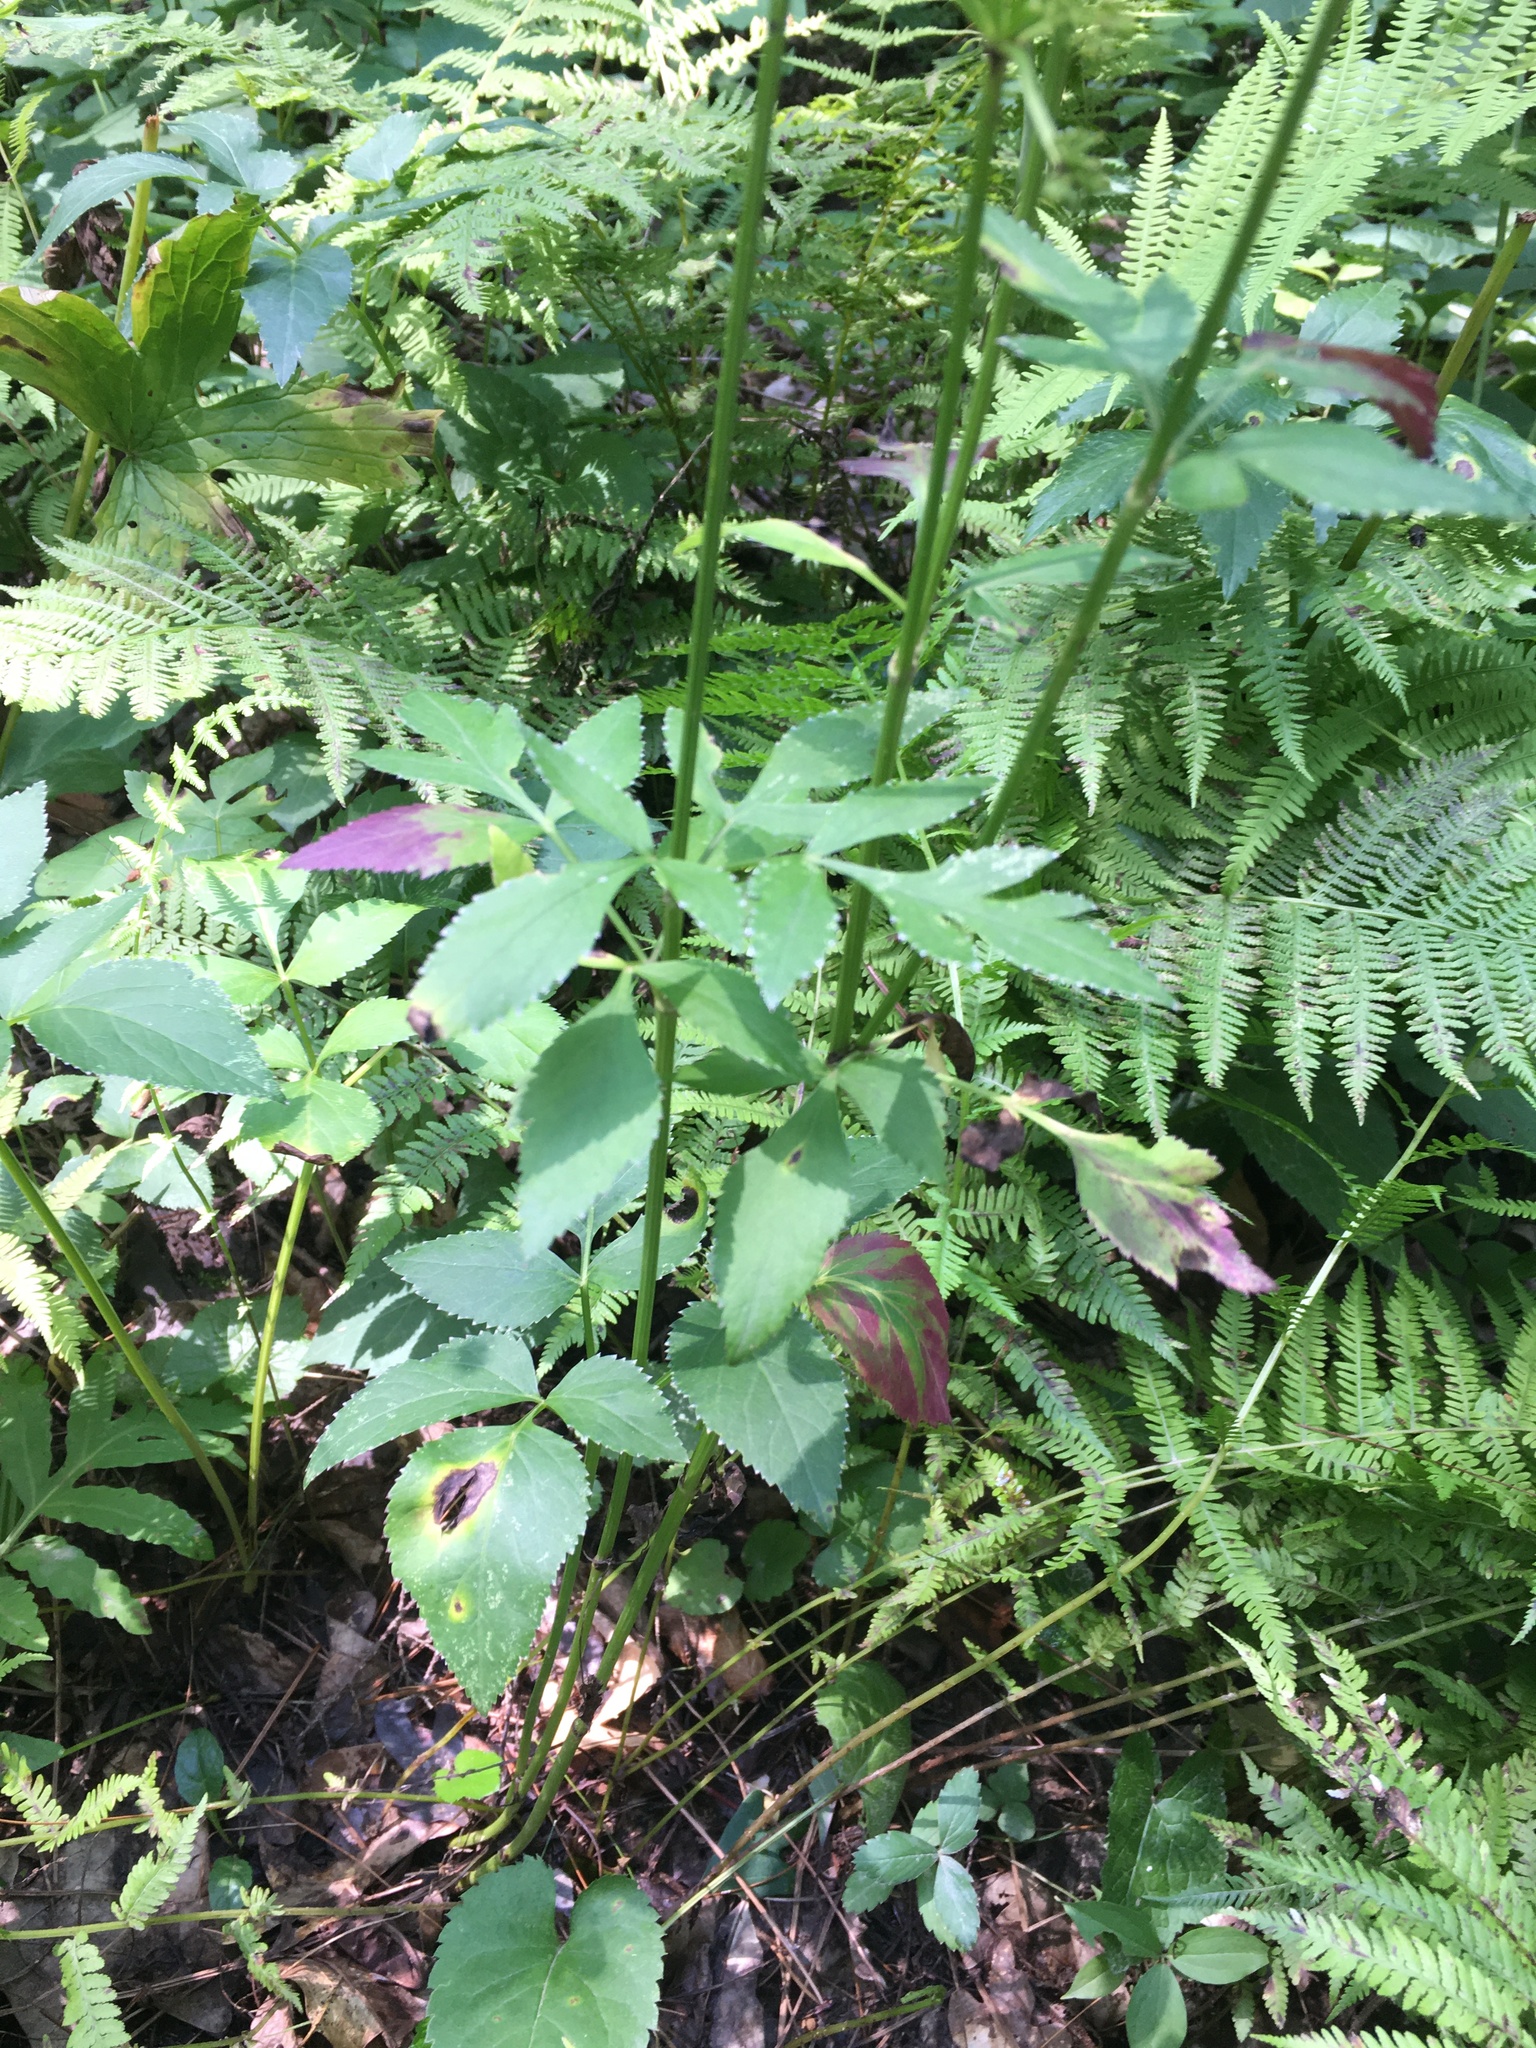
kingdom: Plantae
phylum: Tracheophyta
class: Magnoliopsida
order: Apiales
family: Apiaceae
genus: Aegopodium
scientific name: Aegopodium podagraria
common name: Ground-elder
